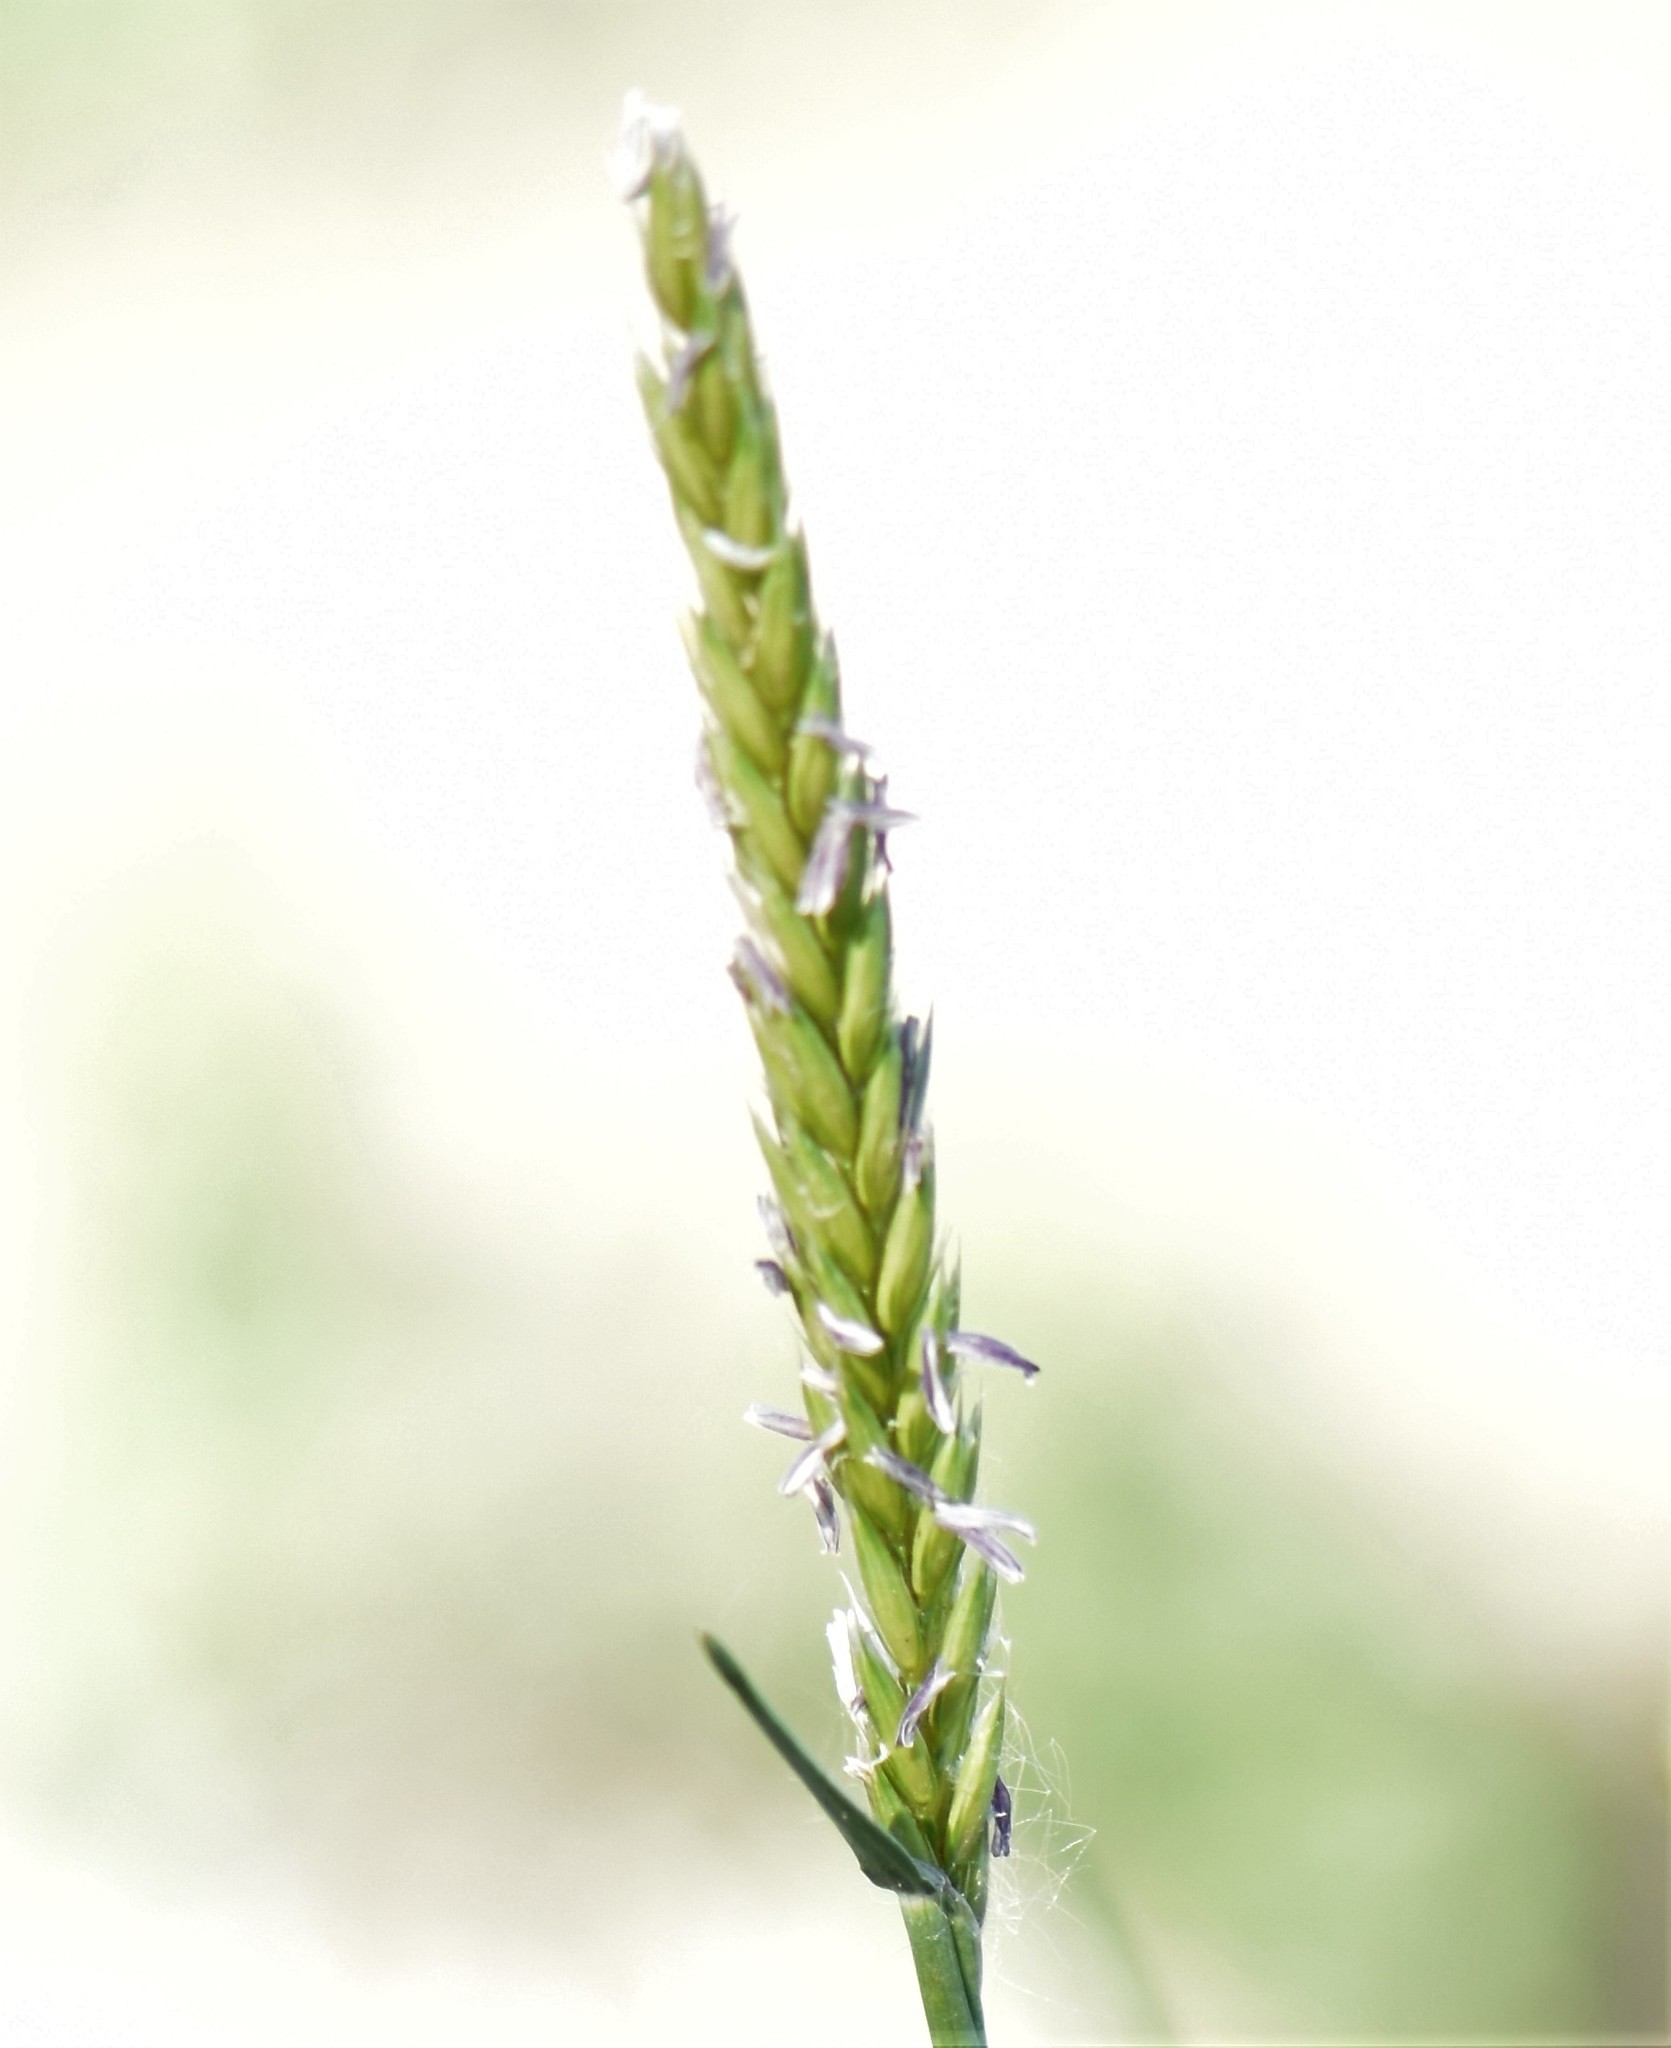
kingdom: Plantae
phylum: Tracheophyta
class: Liliopsida
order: Poales
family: Poaceae
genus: Psathyrostachys
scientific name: Psathyrostachys juncea
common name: Russian wildrye
